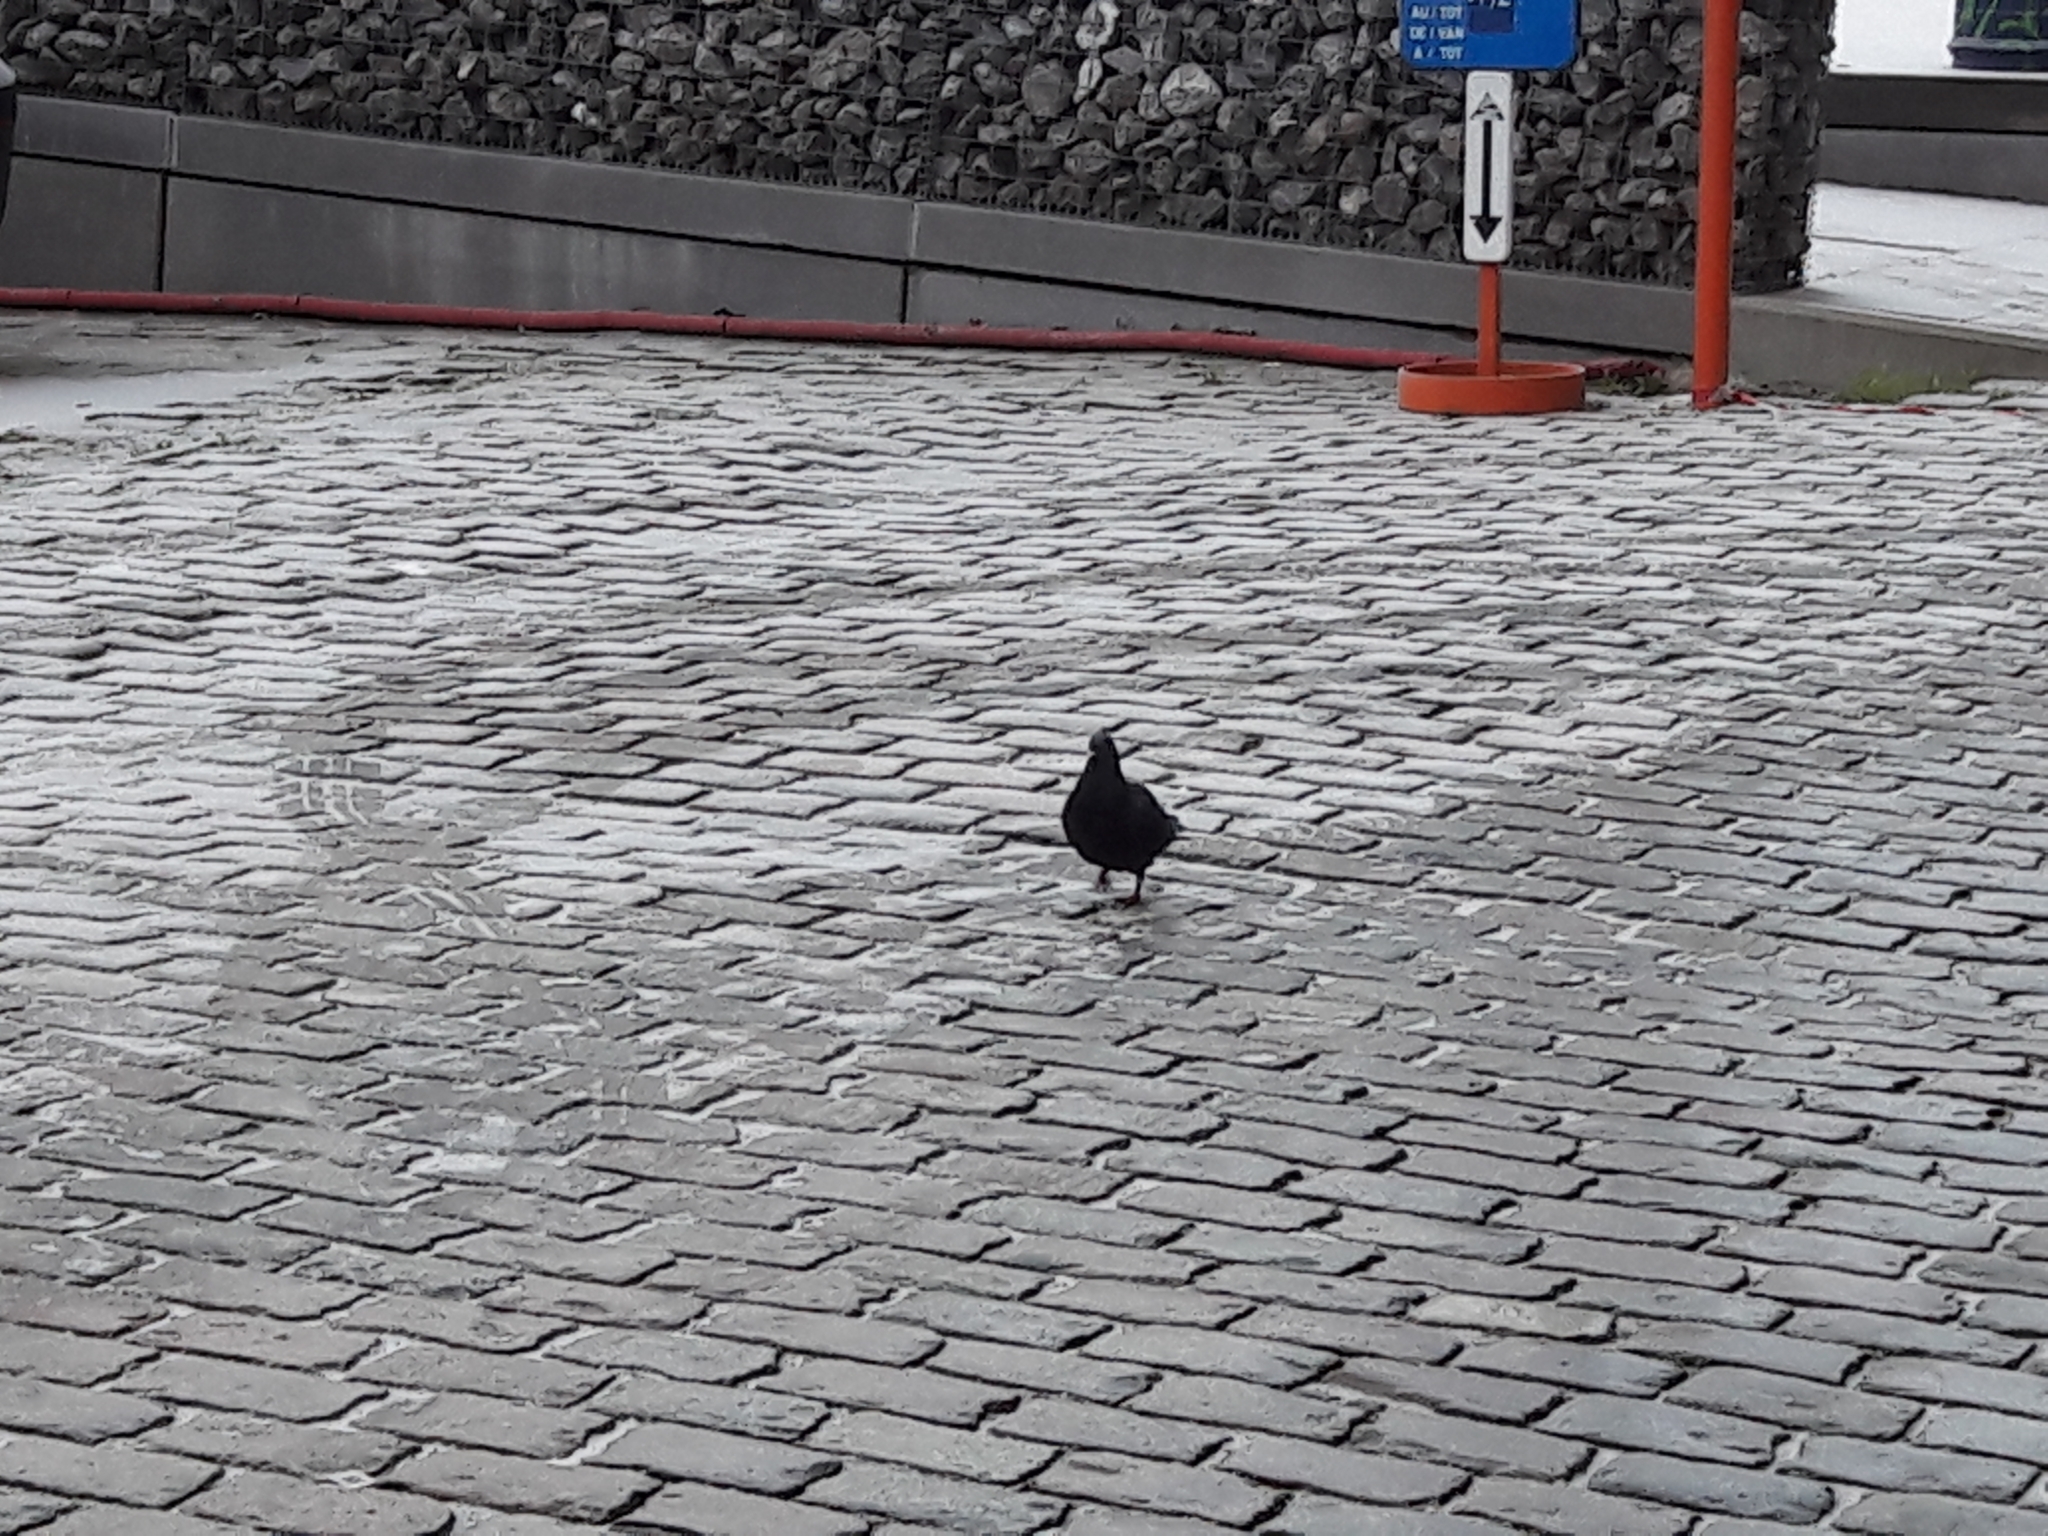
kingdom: Animalia
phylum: Chordata
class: Aves
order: Columbiformes
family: Columbidae
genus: Columba
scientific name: Columba livia
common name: Rock pigeon
